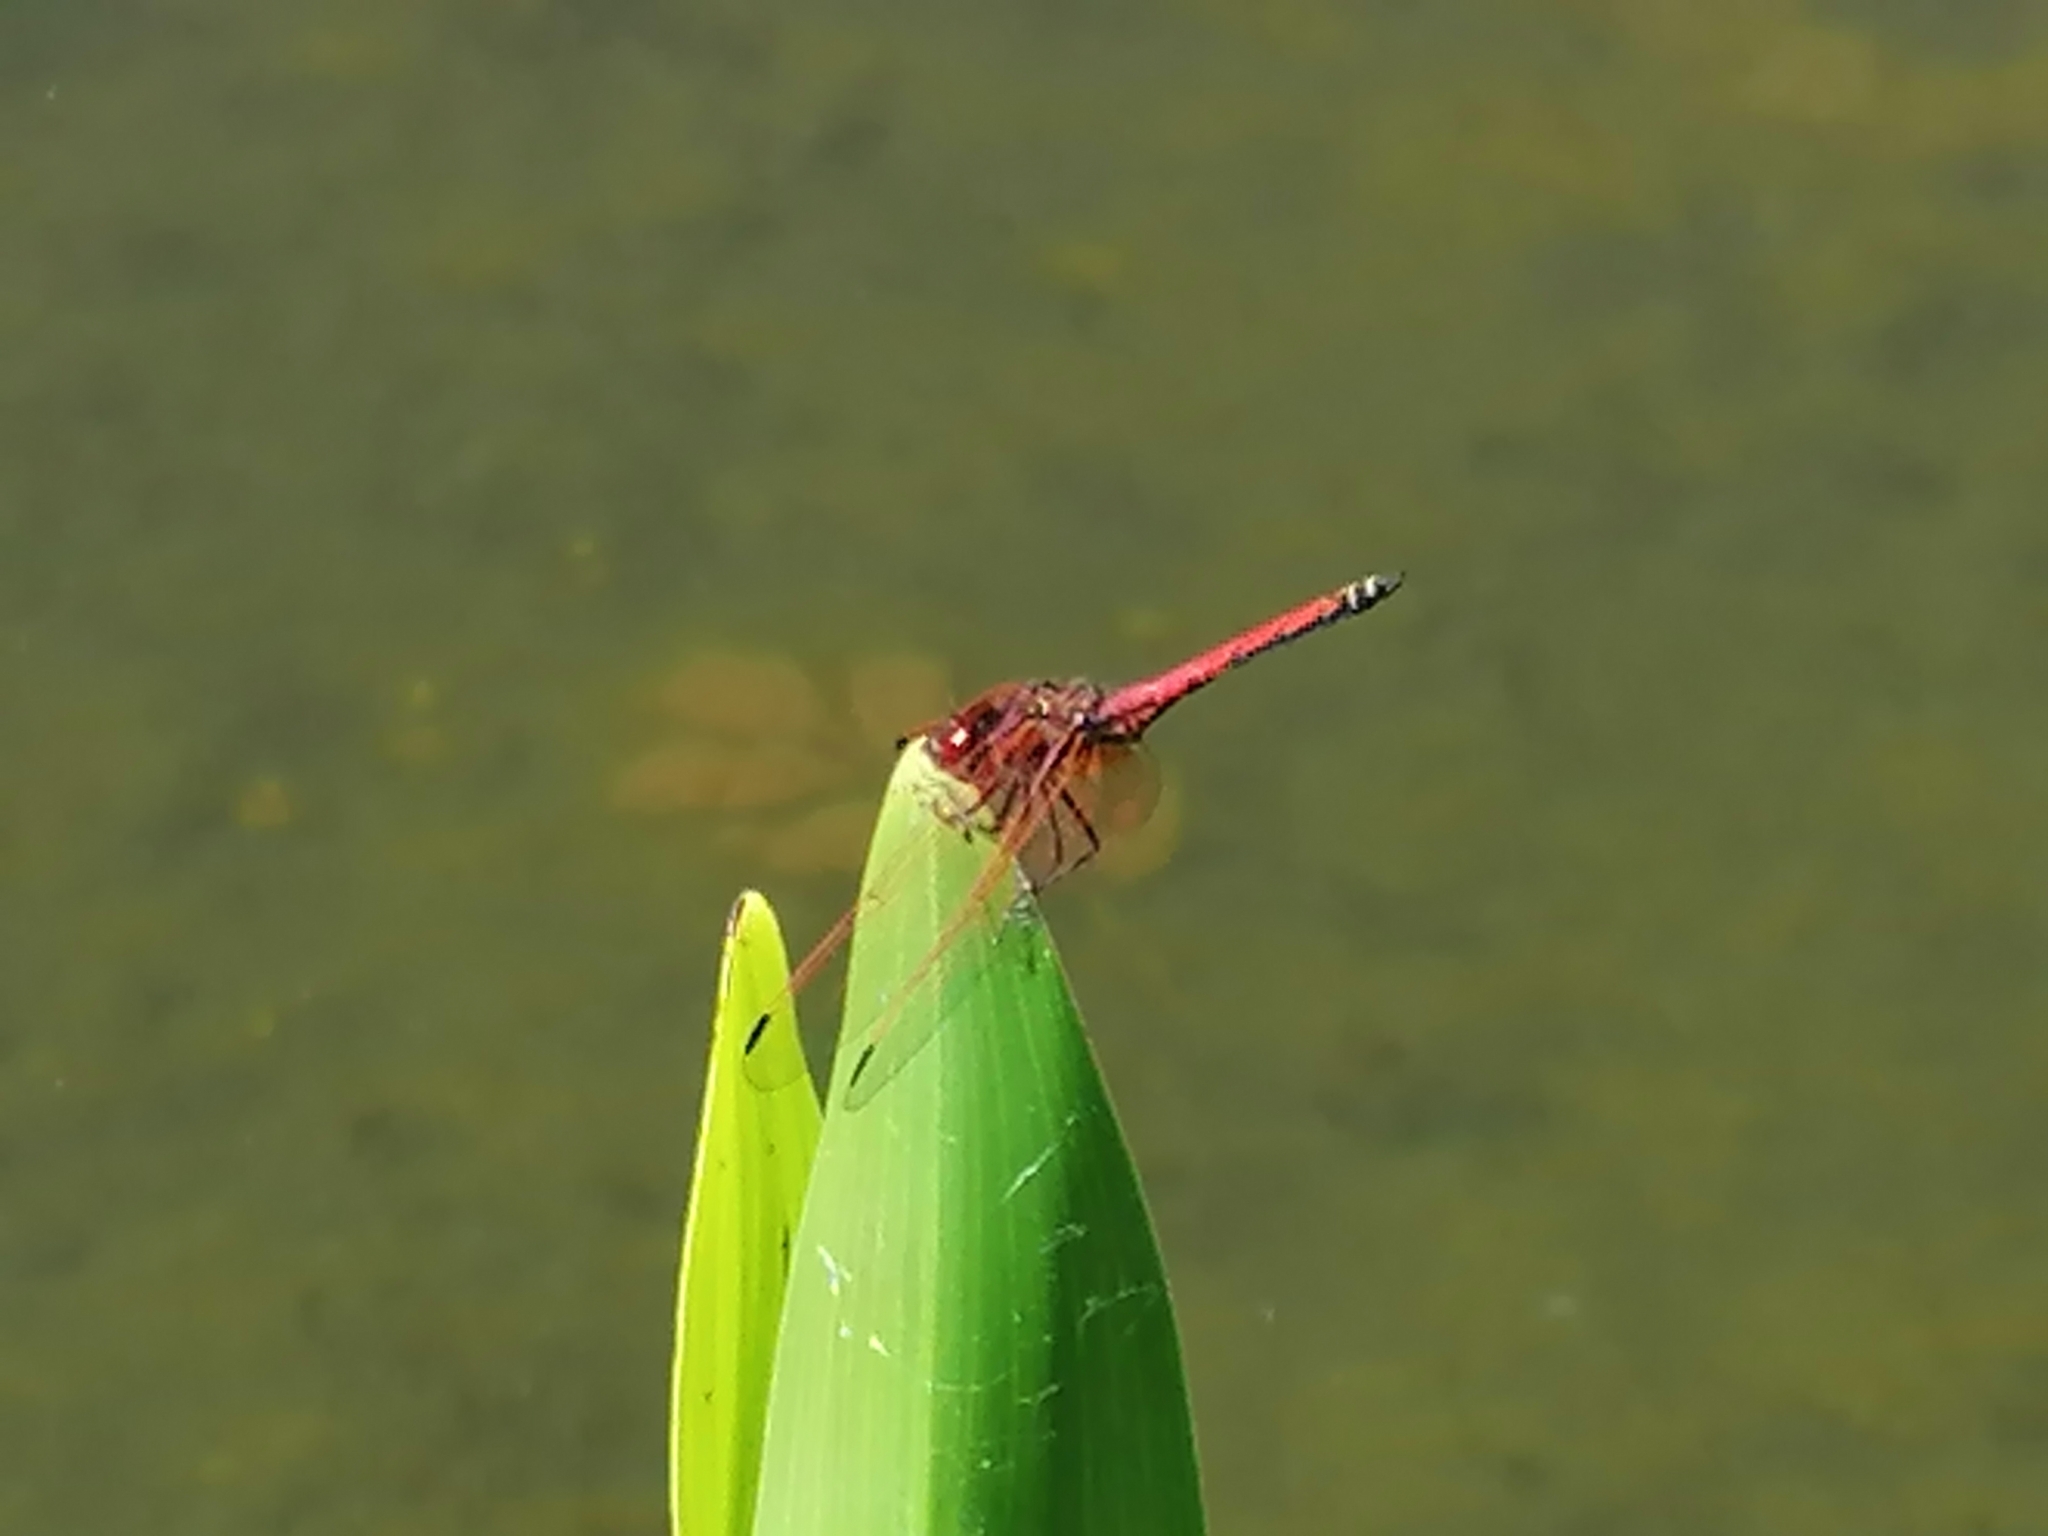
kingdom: Animalia
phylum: Arthropoda
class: Insecta
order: Odonata
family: Libellulidae
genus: Trithemis
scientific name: Trithemis arteriosa
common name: Red-veined dropwing
